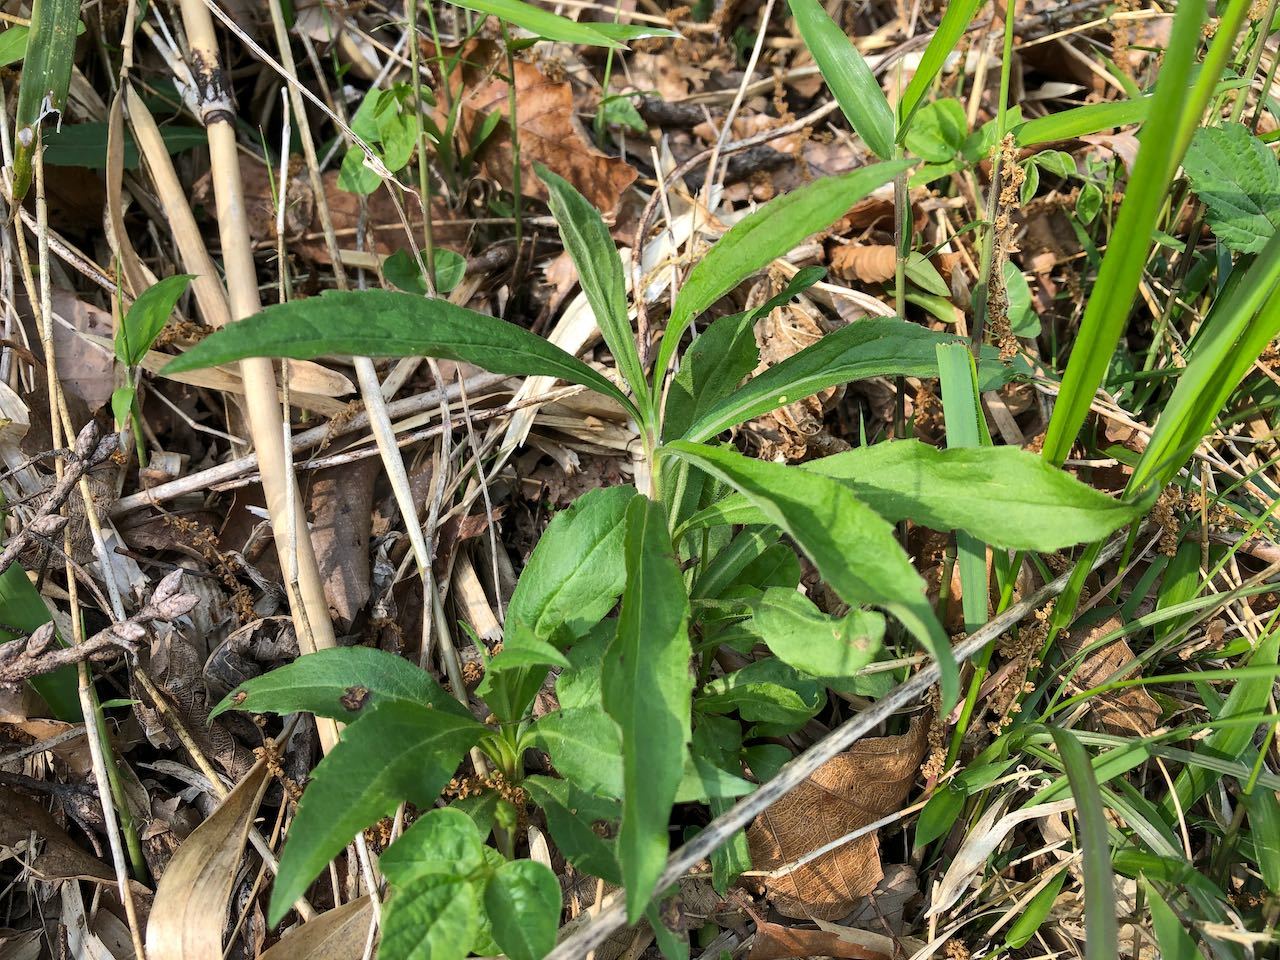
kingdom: Plantae
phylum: Tracheophyta
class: Magnoliopsida
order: Asterales
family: Asteraceae
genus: Solidago
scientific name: Solidago altissima
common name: Late goldenrod
